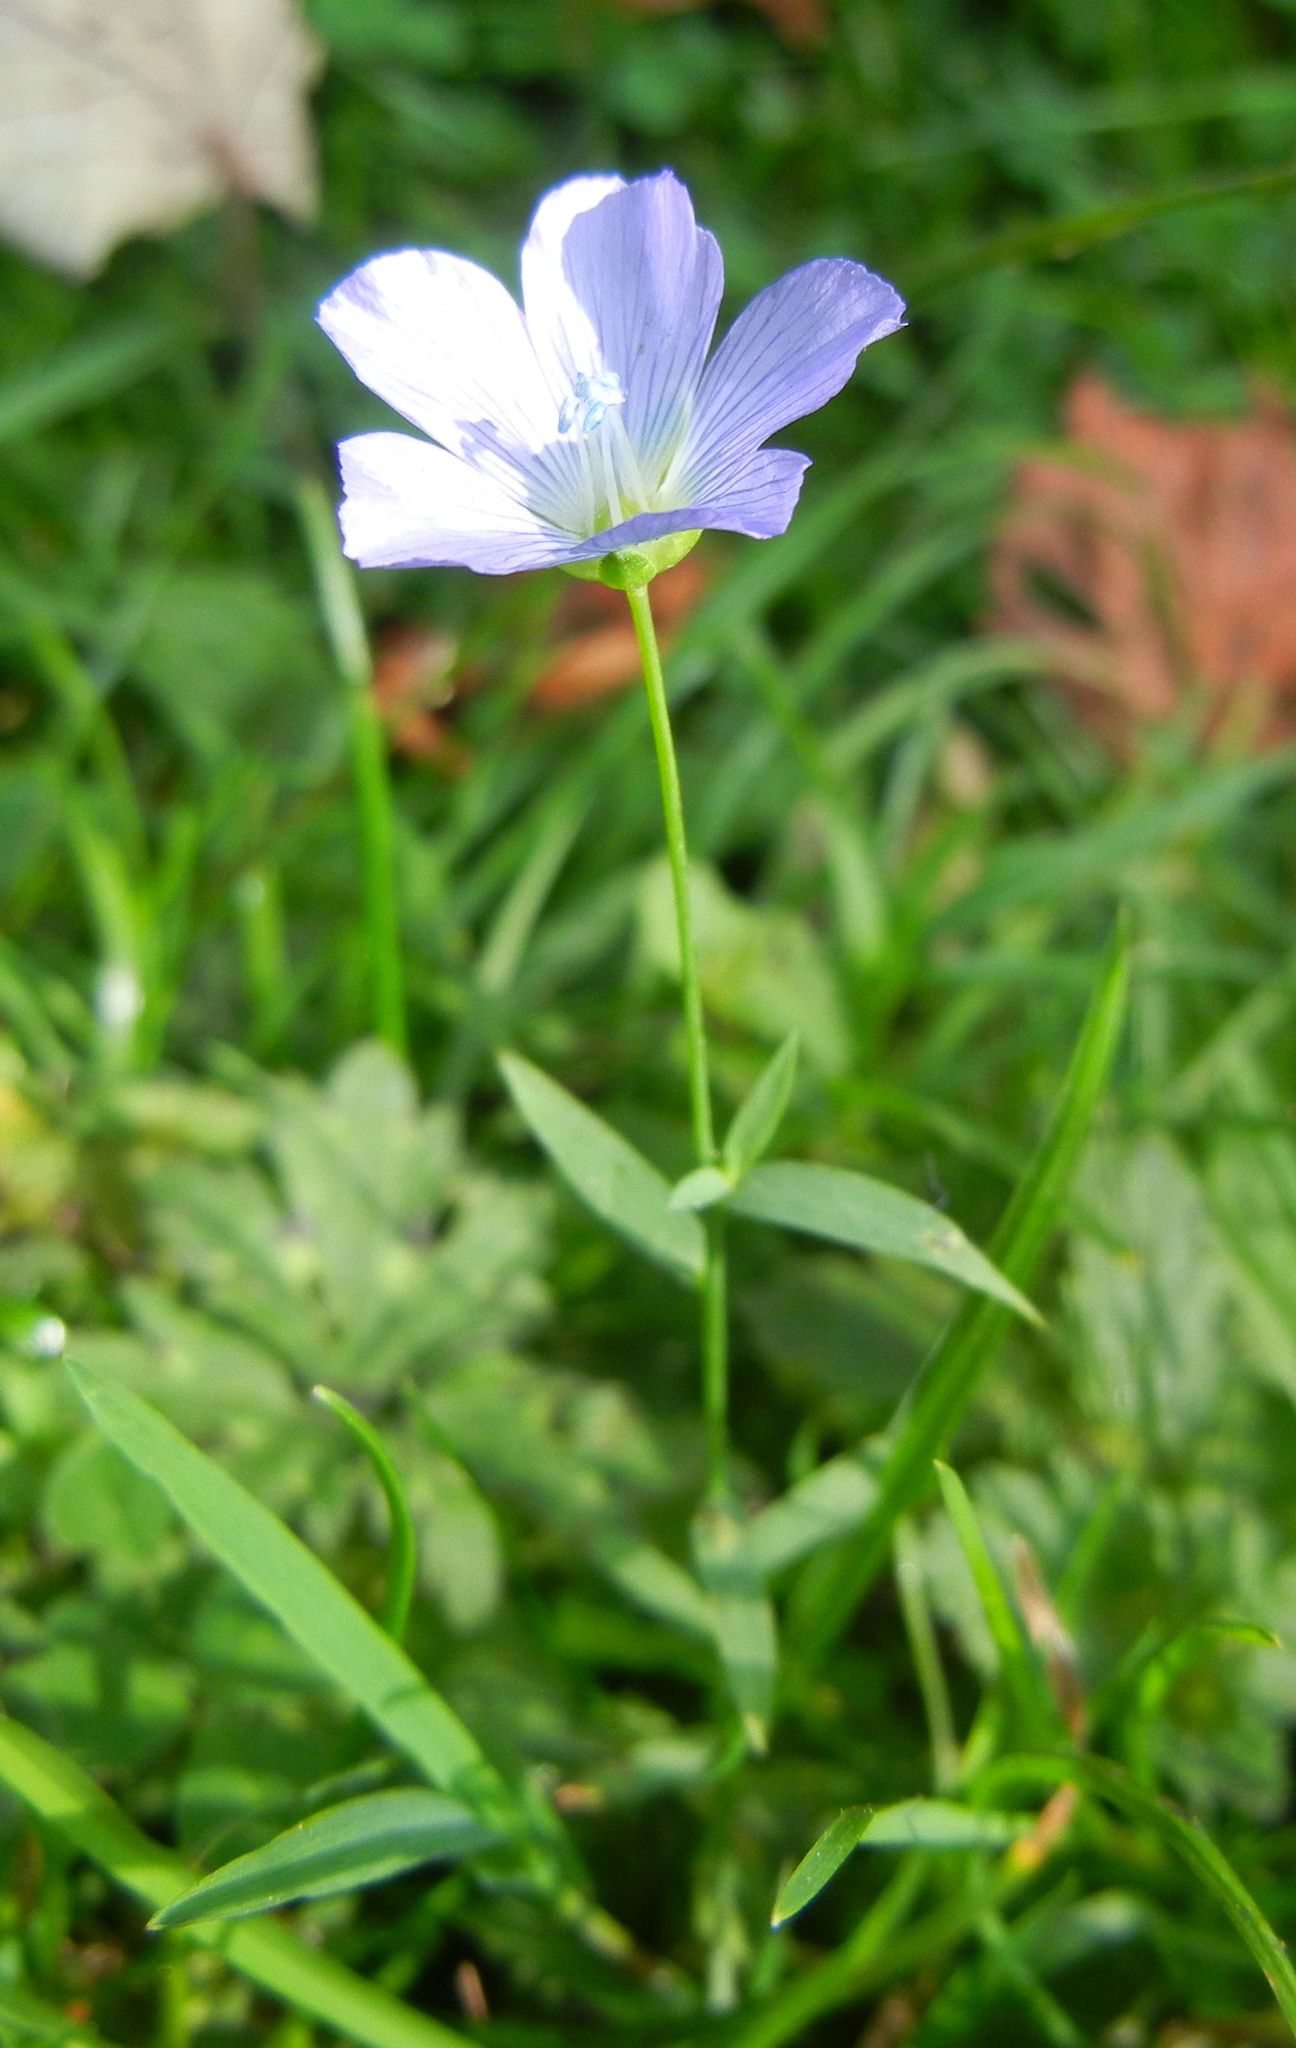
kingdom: Plantae
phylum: Tracheophyta
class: Magnoliopsida
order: Malpighiales
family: Linaceae
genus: Linum
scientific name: Linum usitatissimum
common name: Flax
